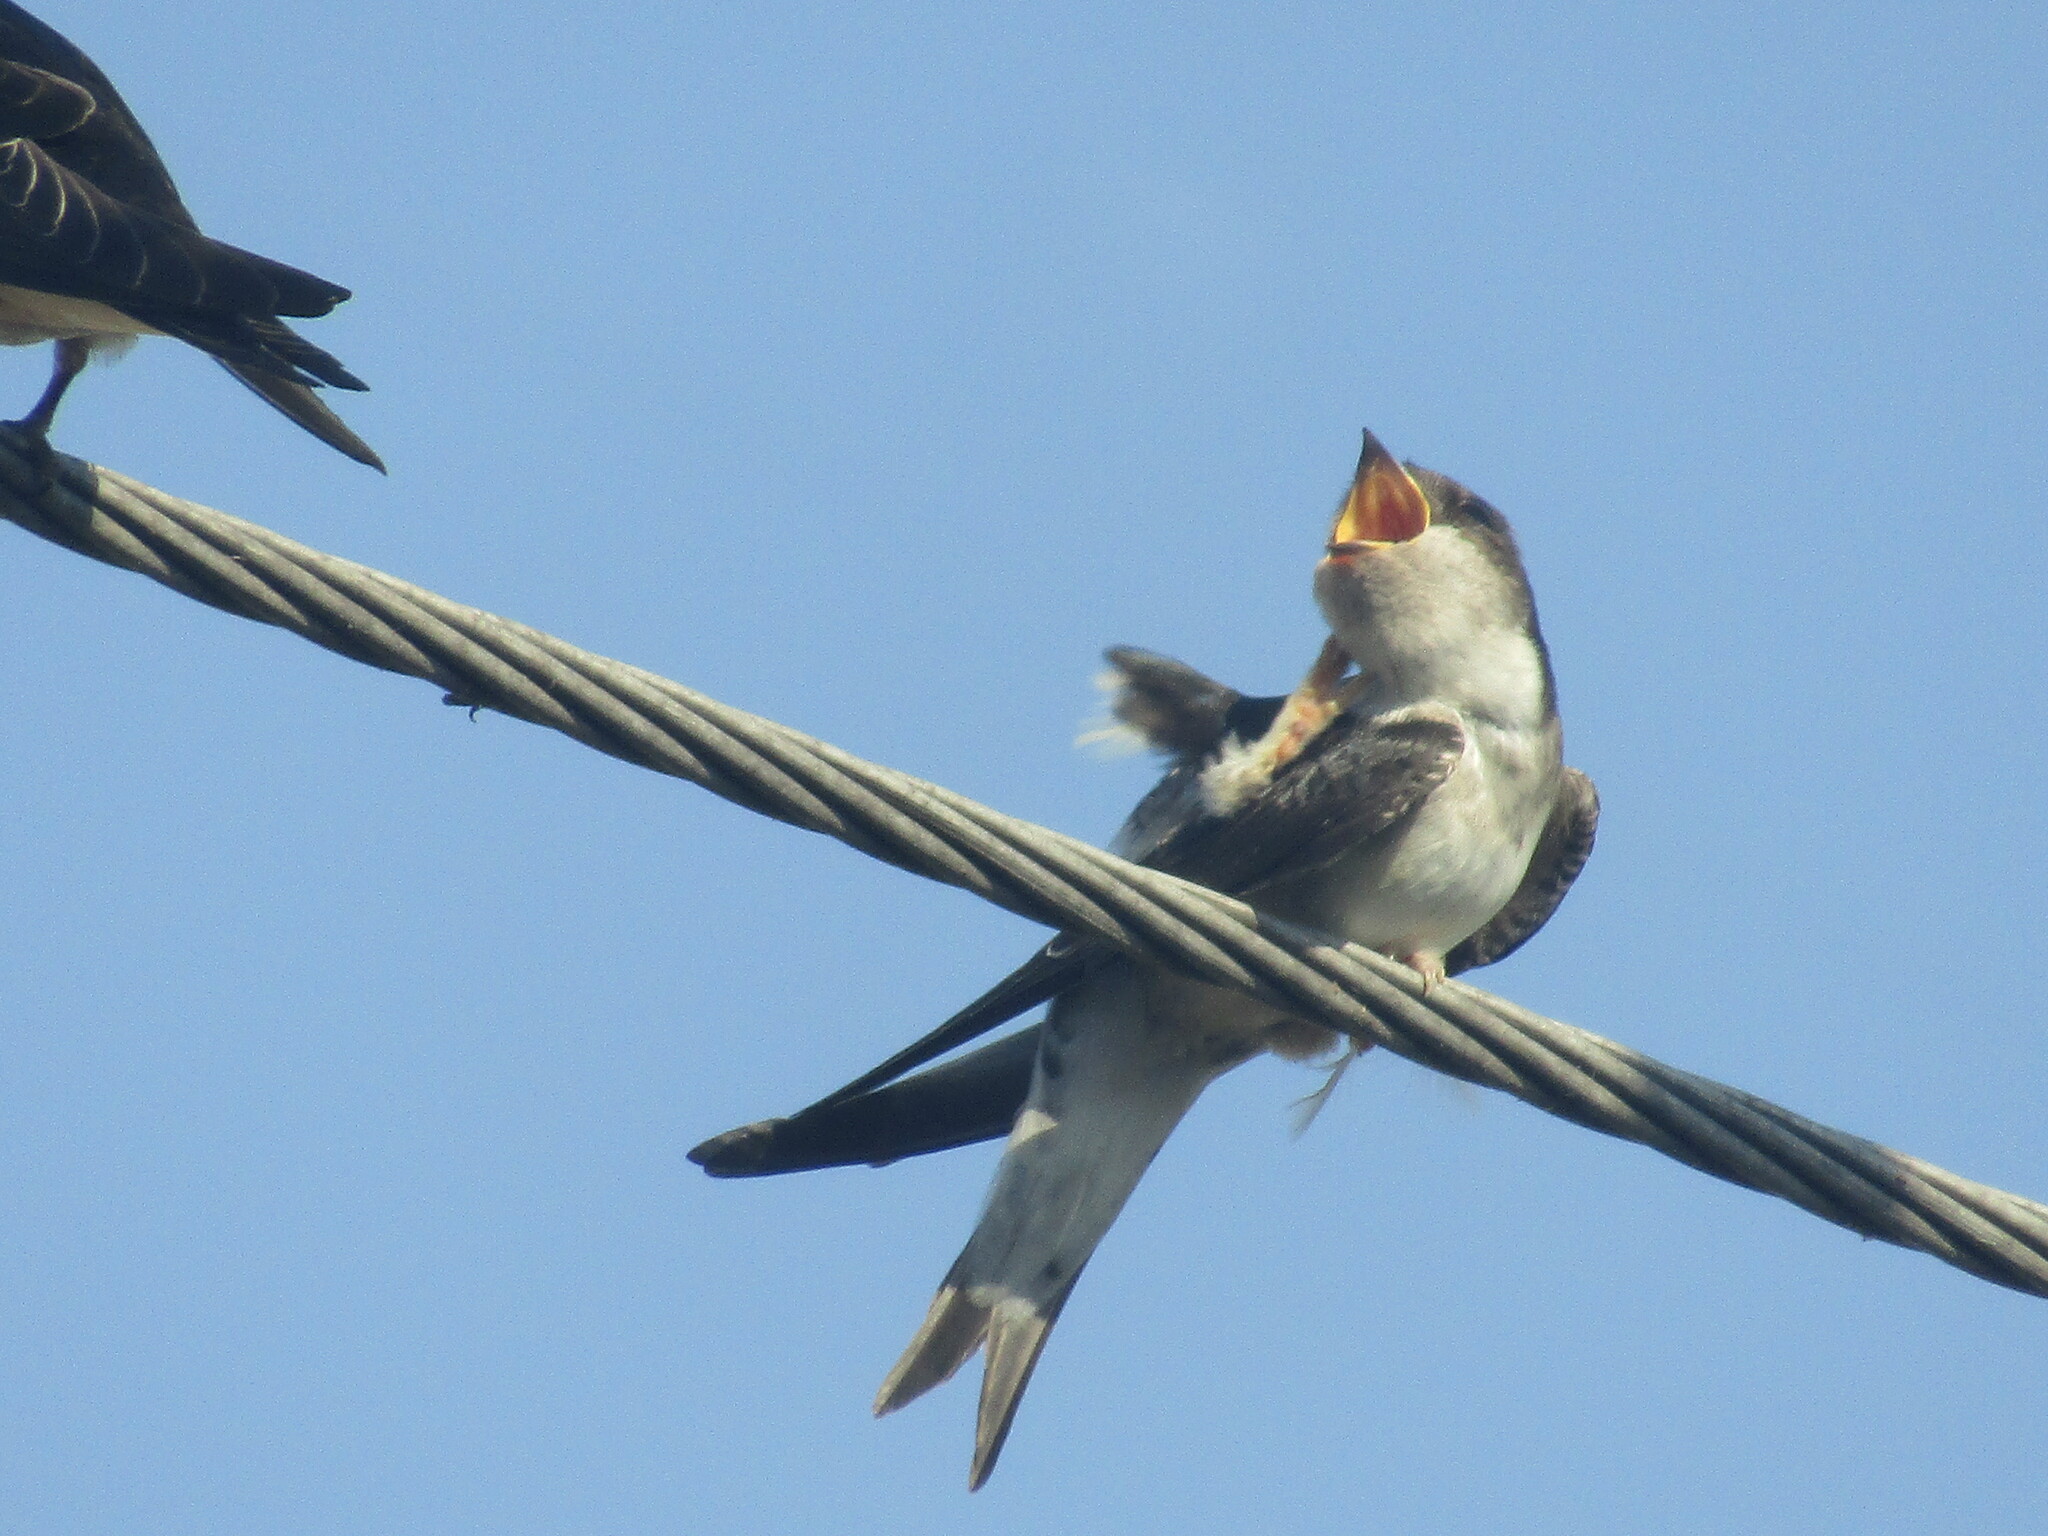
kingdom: Animalia
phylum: Chordata
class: Aves
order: Passeriformes
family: Hirundinidae
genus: Delichon
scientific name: Delichon urbicum
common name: Common house martin
